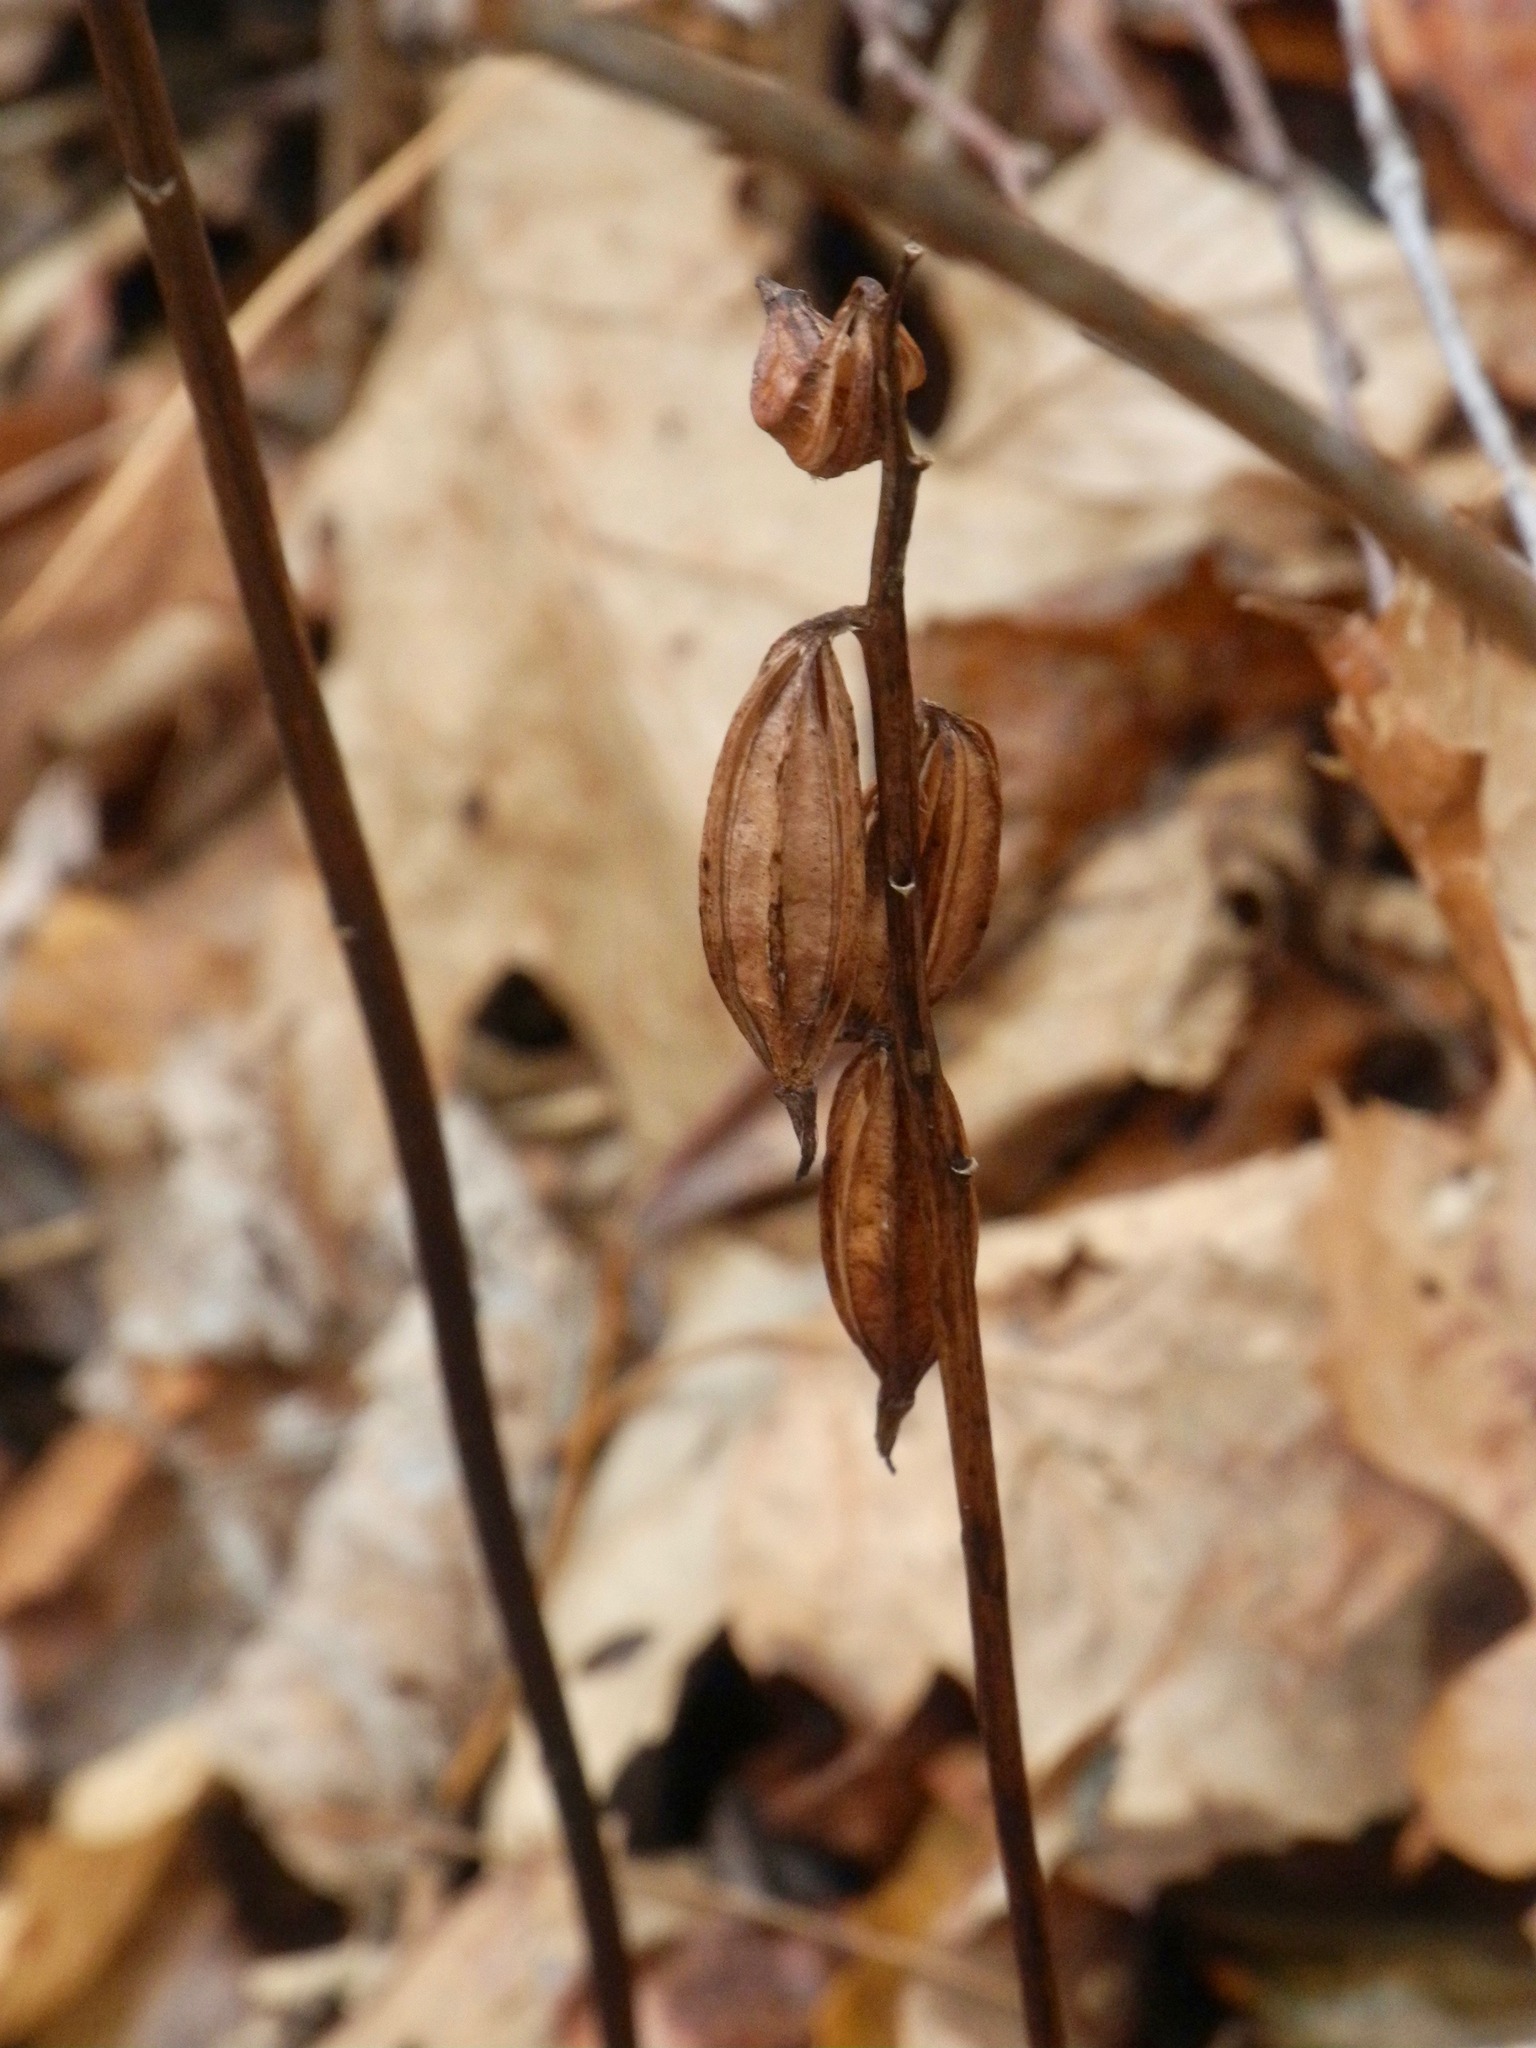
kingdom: Plantae
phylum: Tracheophyta
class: Liliopsida
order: Asparagales
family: Orchidaceae
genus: Aplectrum
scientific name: Aplectrum hyemale
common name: Adam-and-eve
